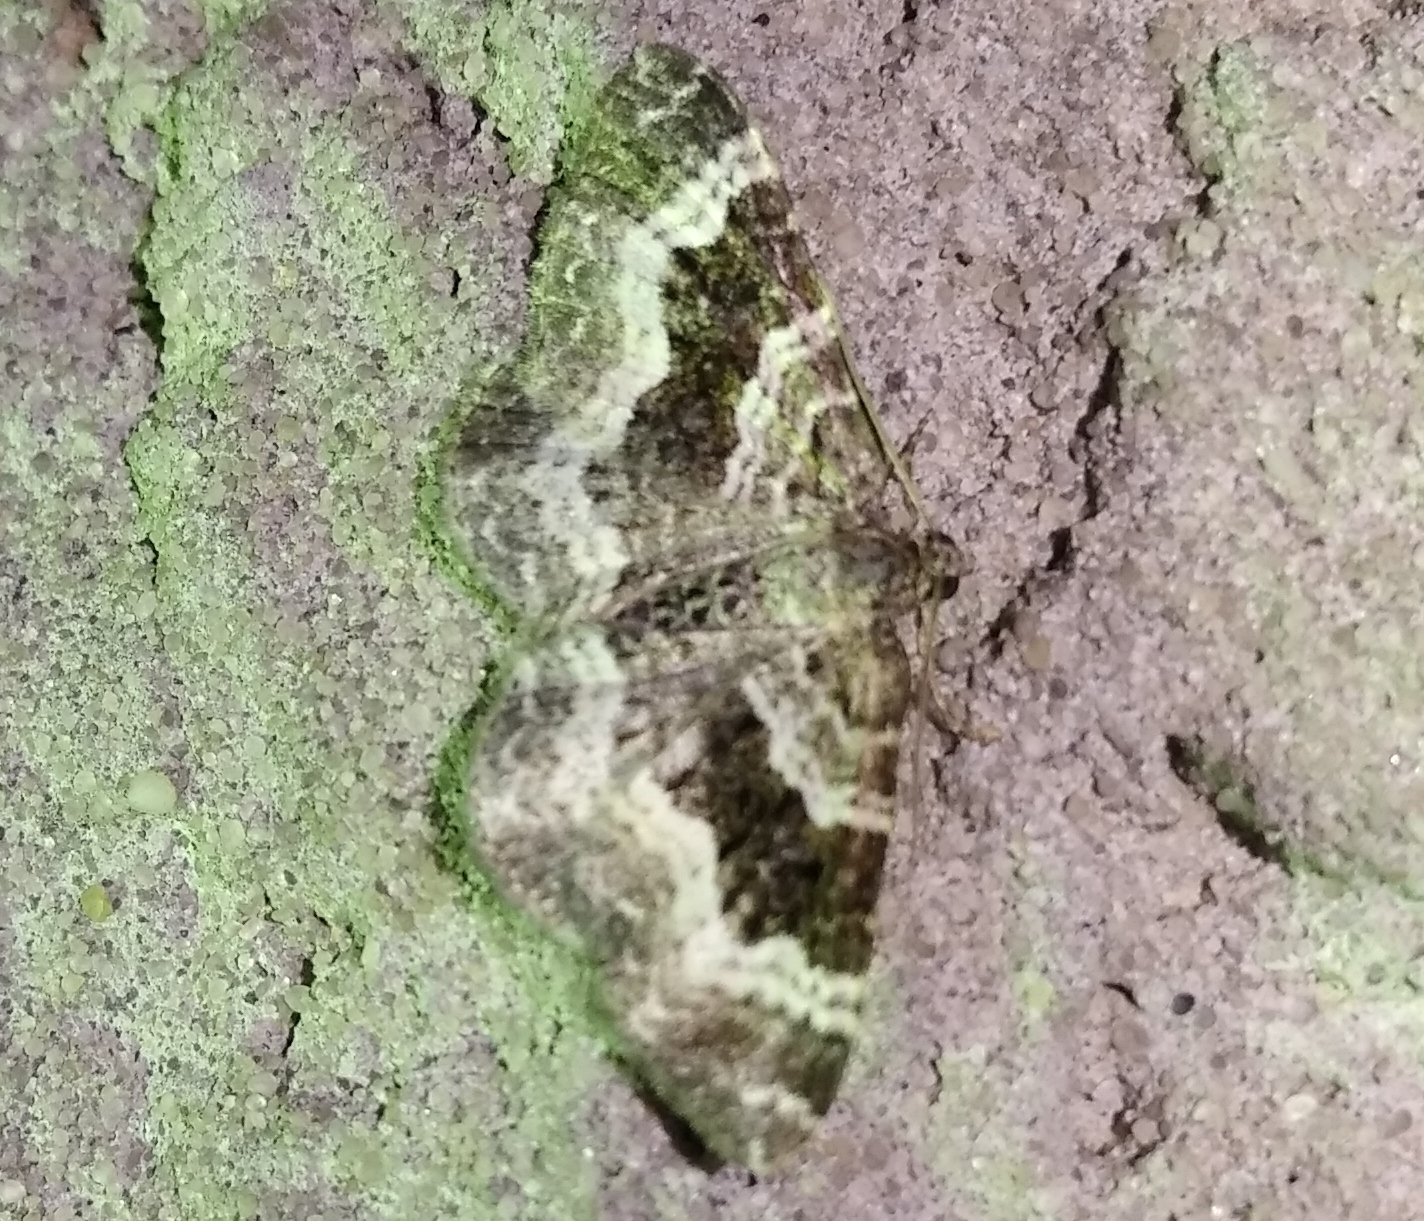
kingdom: Animalia
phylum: Arthropoda
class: Insecta
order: Lepidoptera
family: Geometridae
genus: Epirrhoe
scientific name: Epirrhoe alternata
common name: Common carpet
